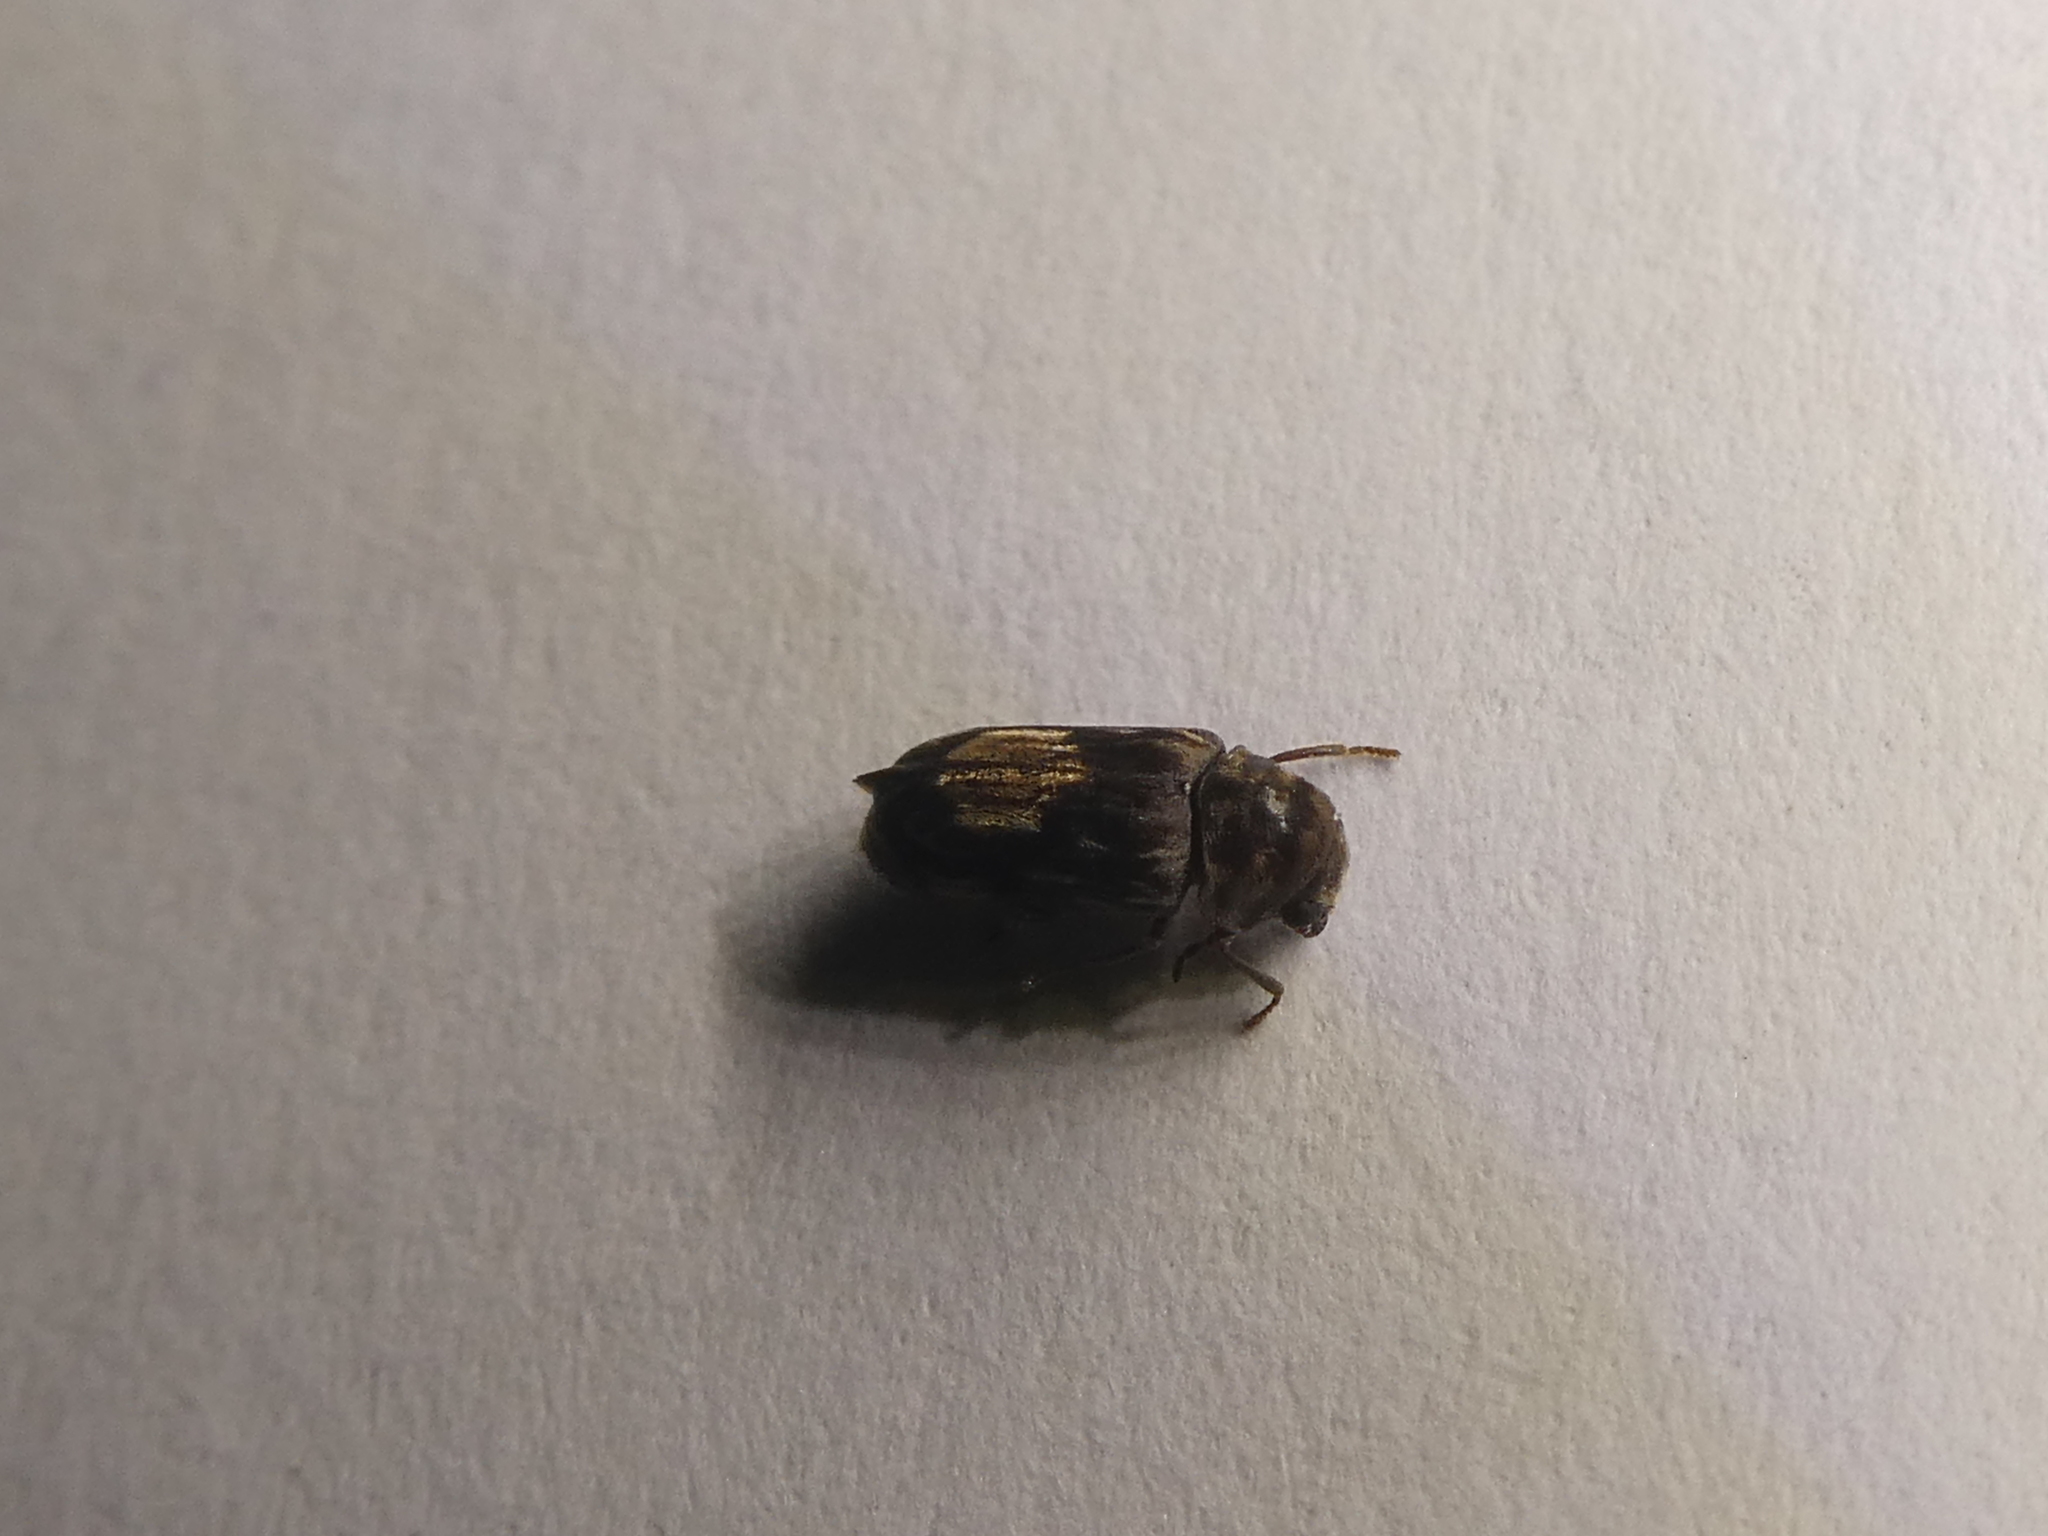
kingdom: Animalia
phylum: Arthropoda
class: Insecta
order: Coleoptera
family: Ptinidae
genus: Leanobium
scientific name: Leanobium
